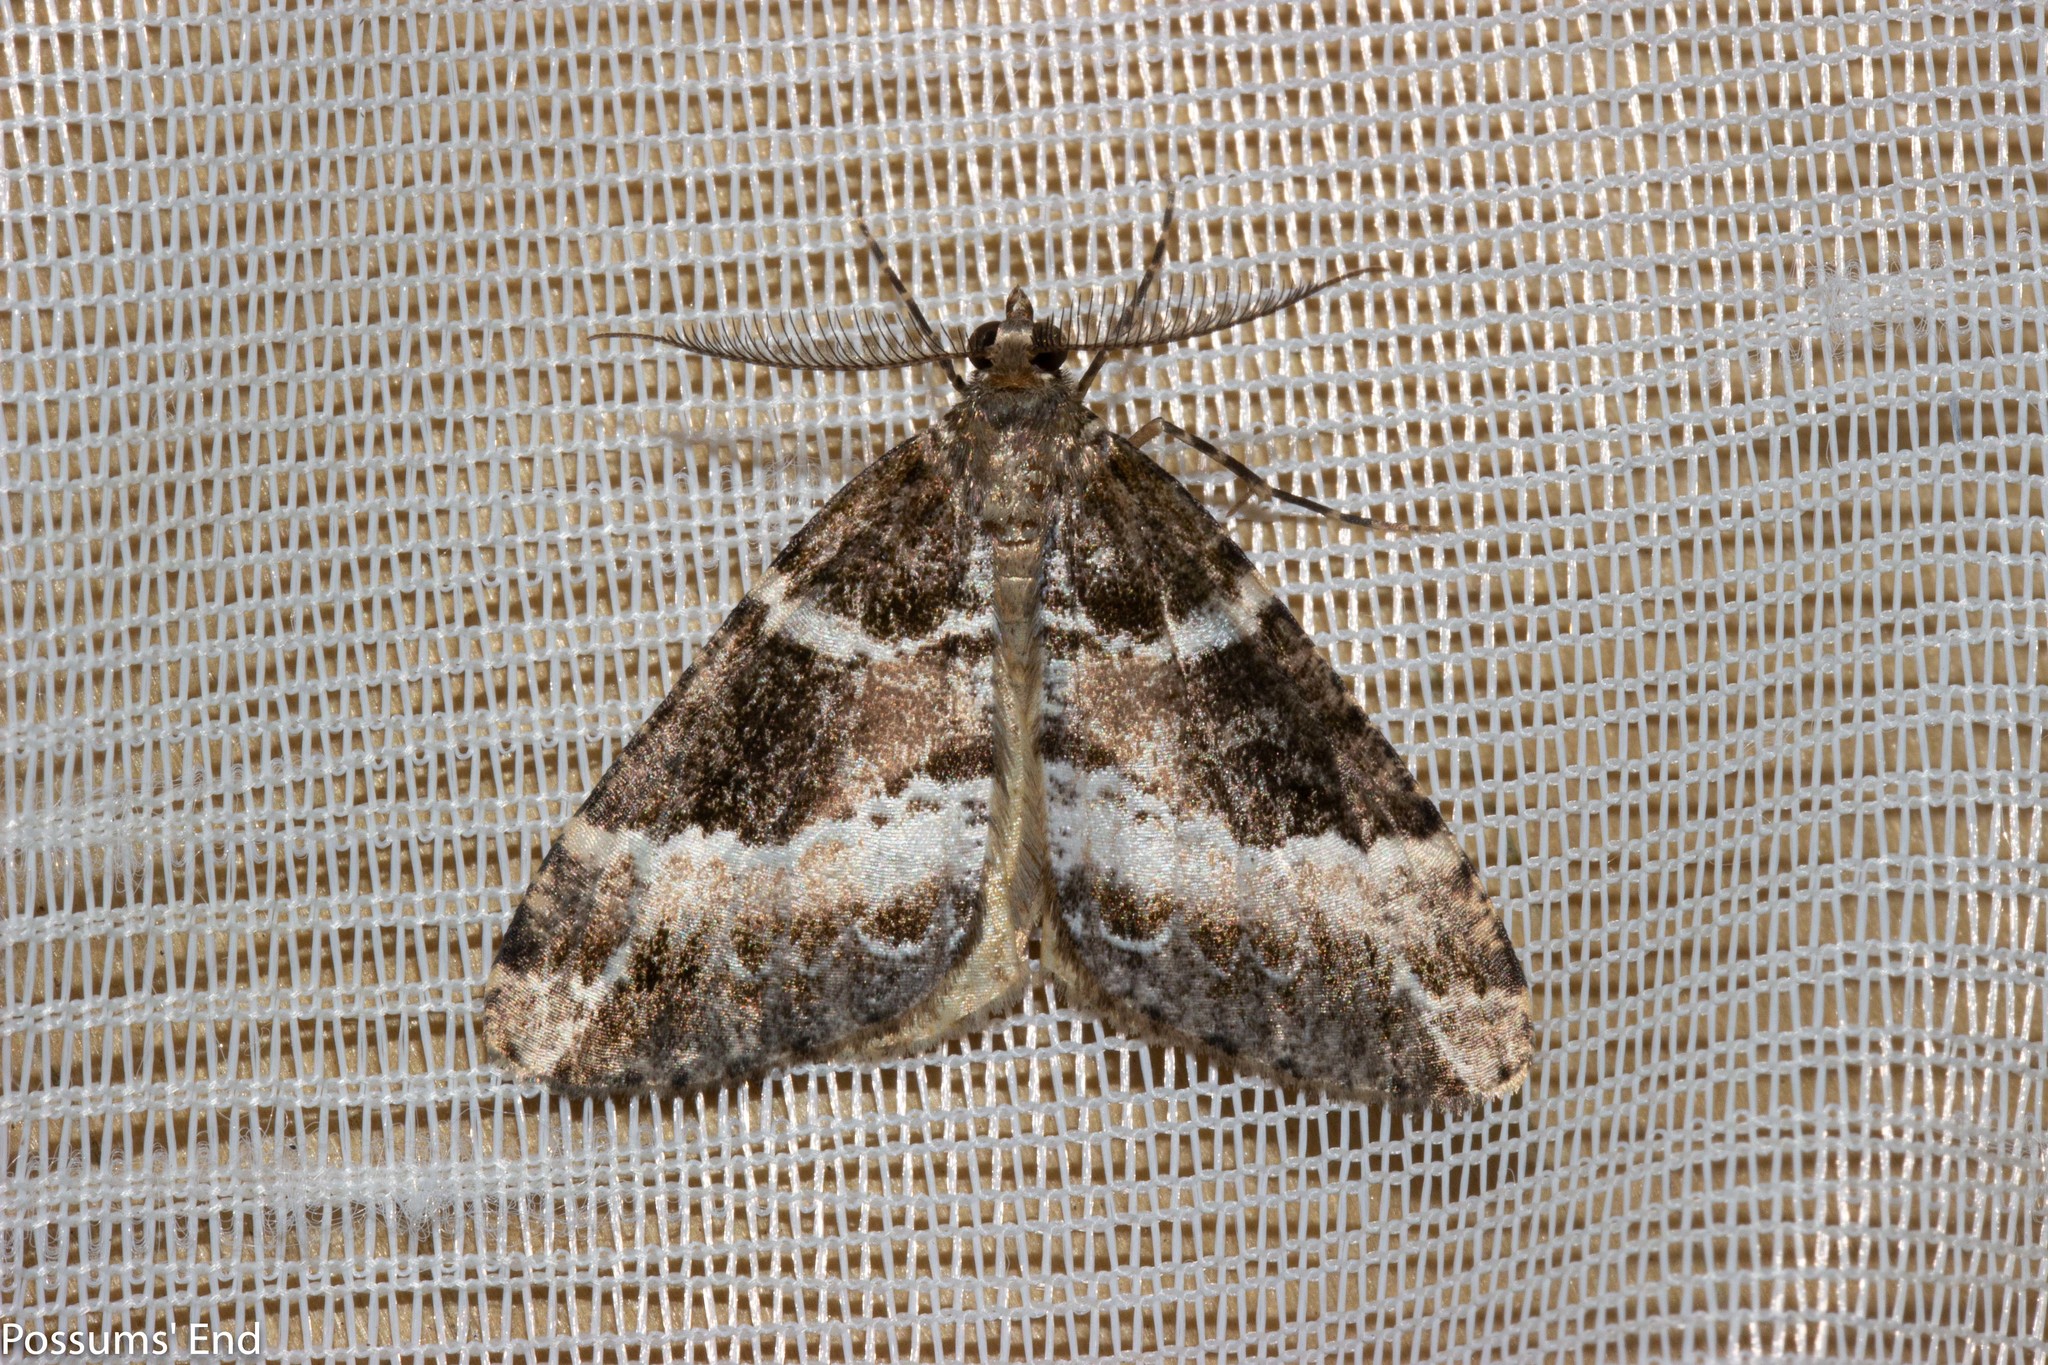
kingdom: Animalia
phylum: Arthropoda
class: Insecta
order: Lepidoptera
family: Geometridae
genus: Pseudocoremia
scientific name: Pseudocoremia
